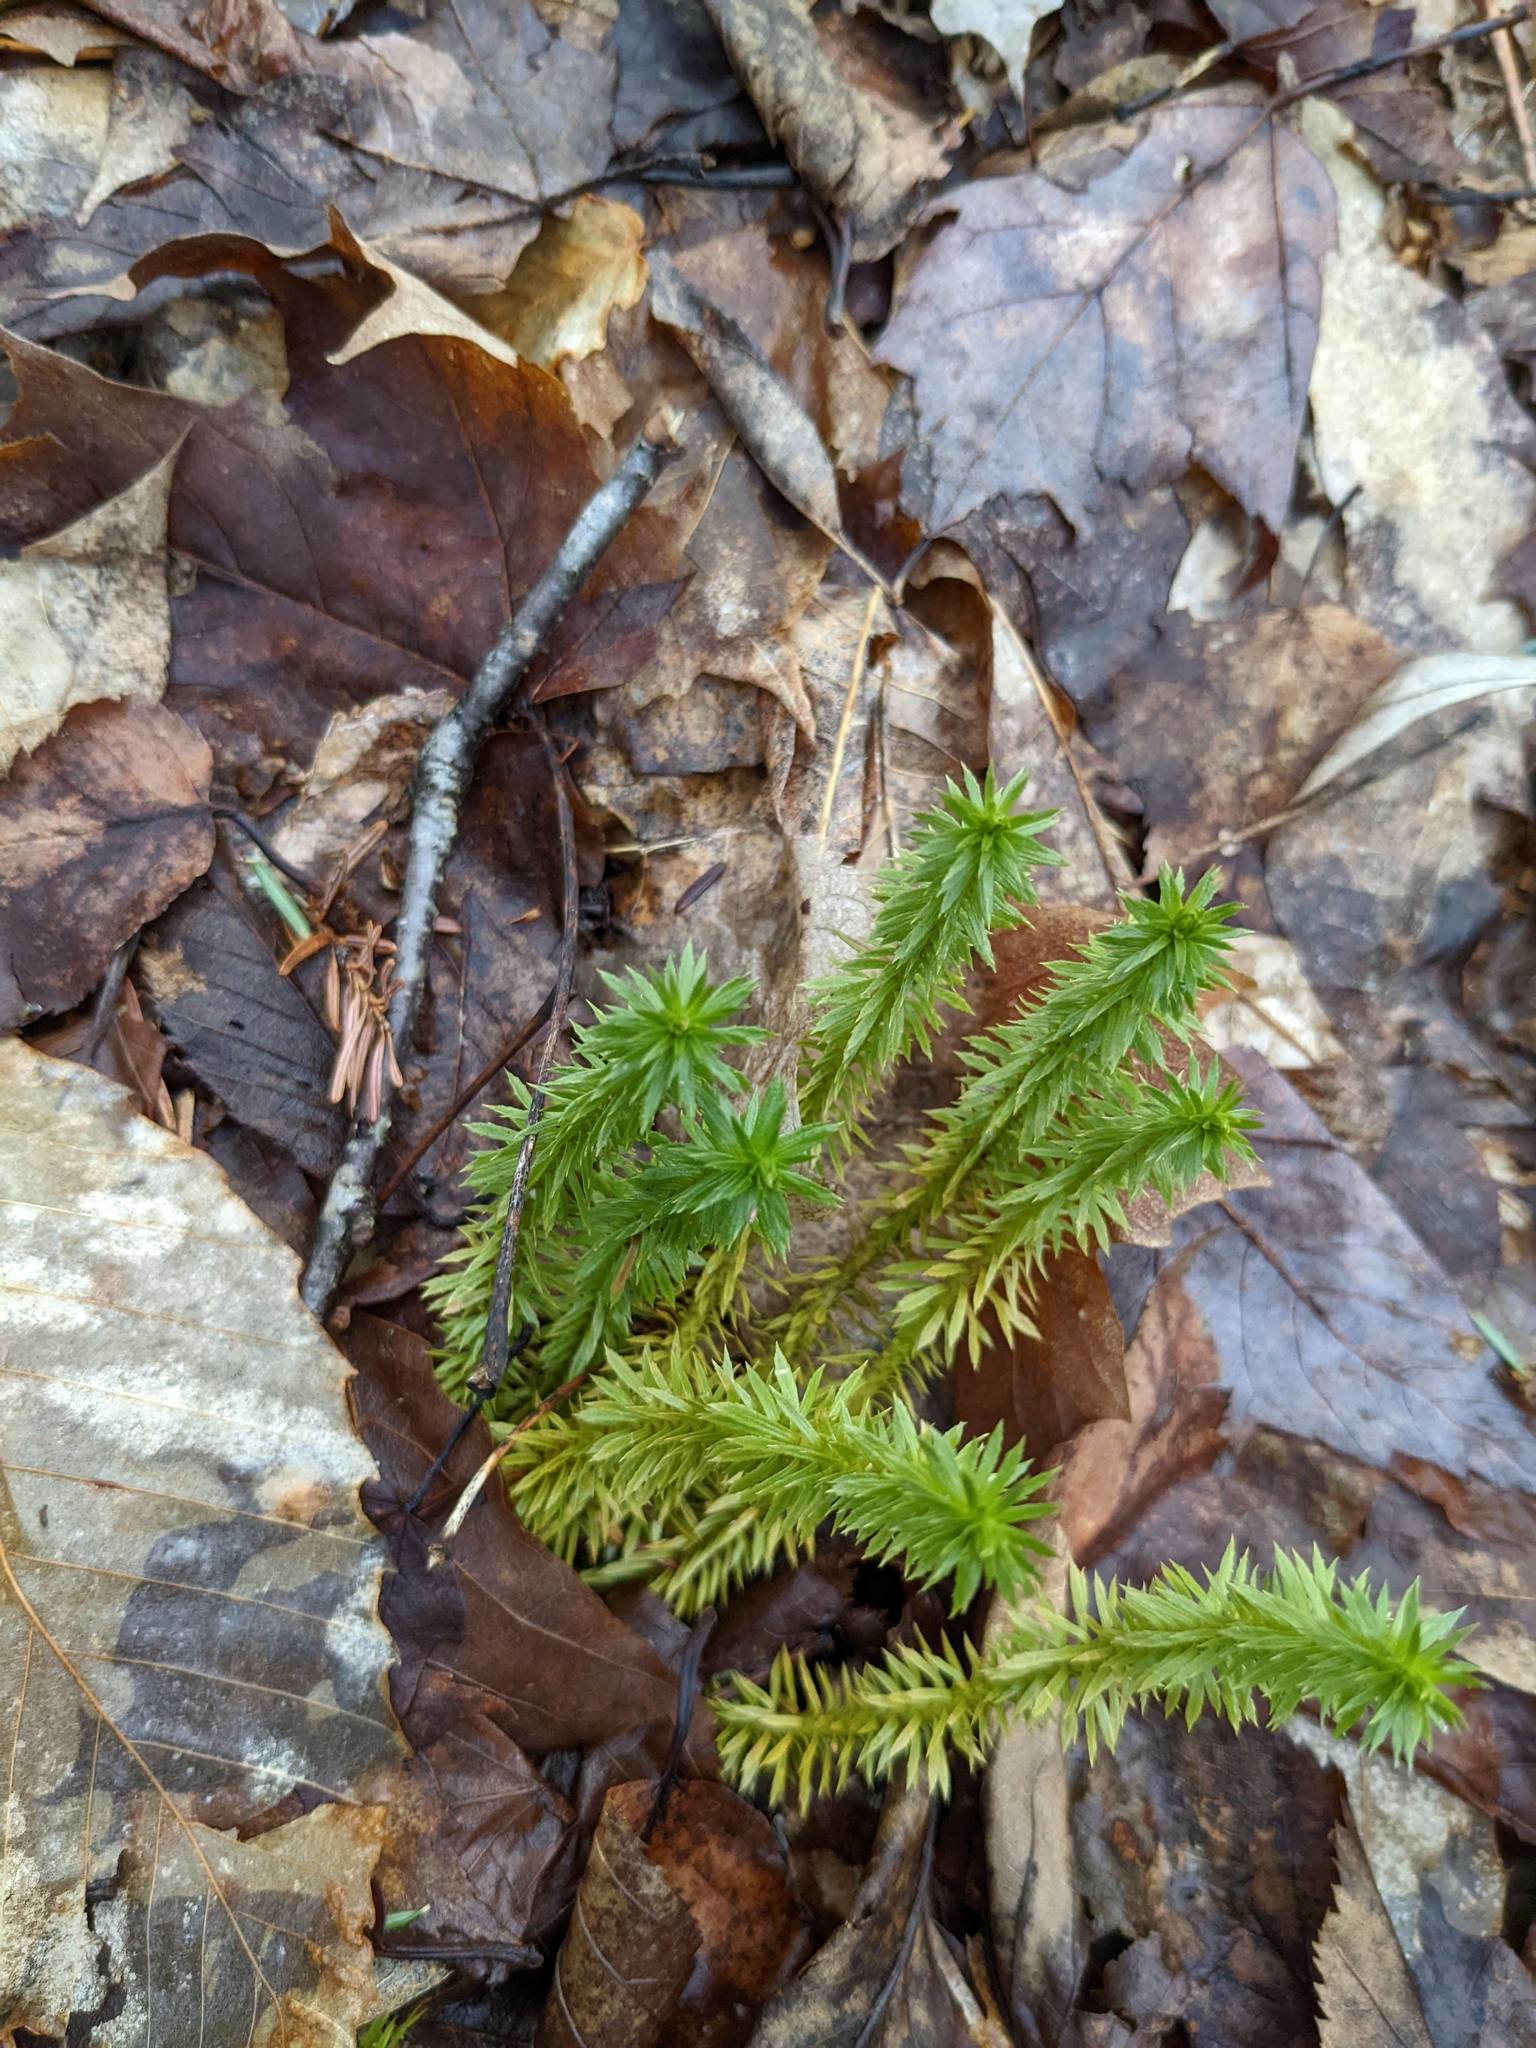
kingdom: Plantae
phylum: Tracheophyta
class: Lycopodiopsida
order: Lycopodiales
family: Lycopodiaceae
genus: Spinulum
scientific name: Spinulum annotinum
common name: Interrupted club-moss
